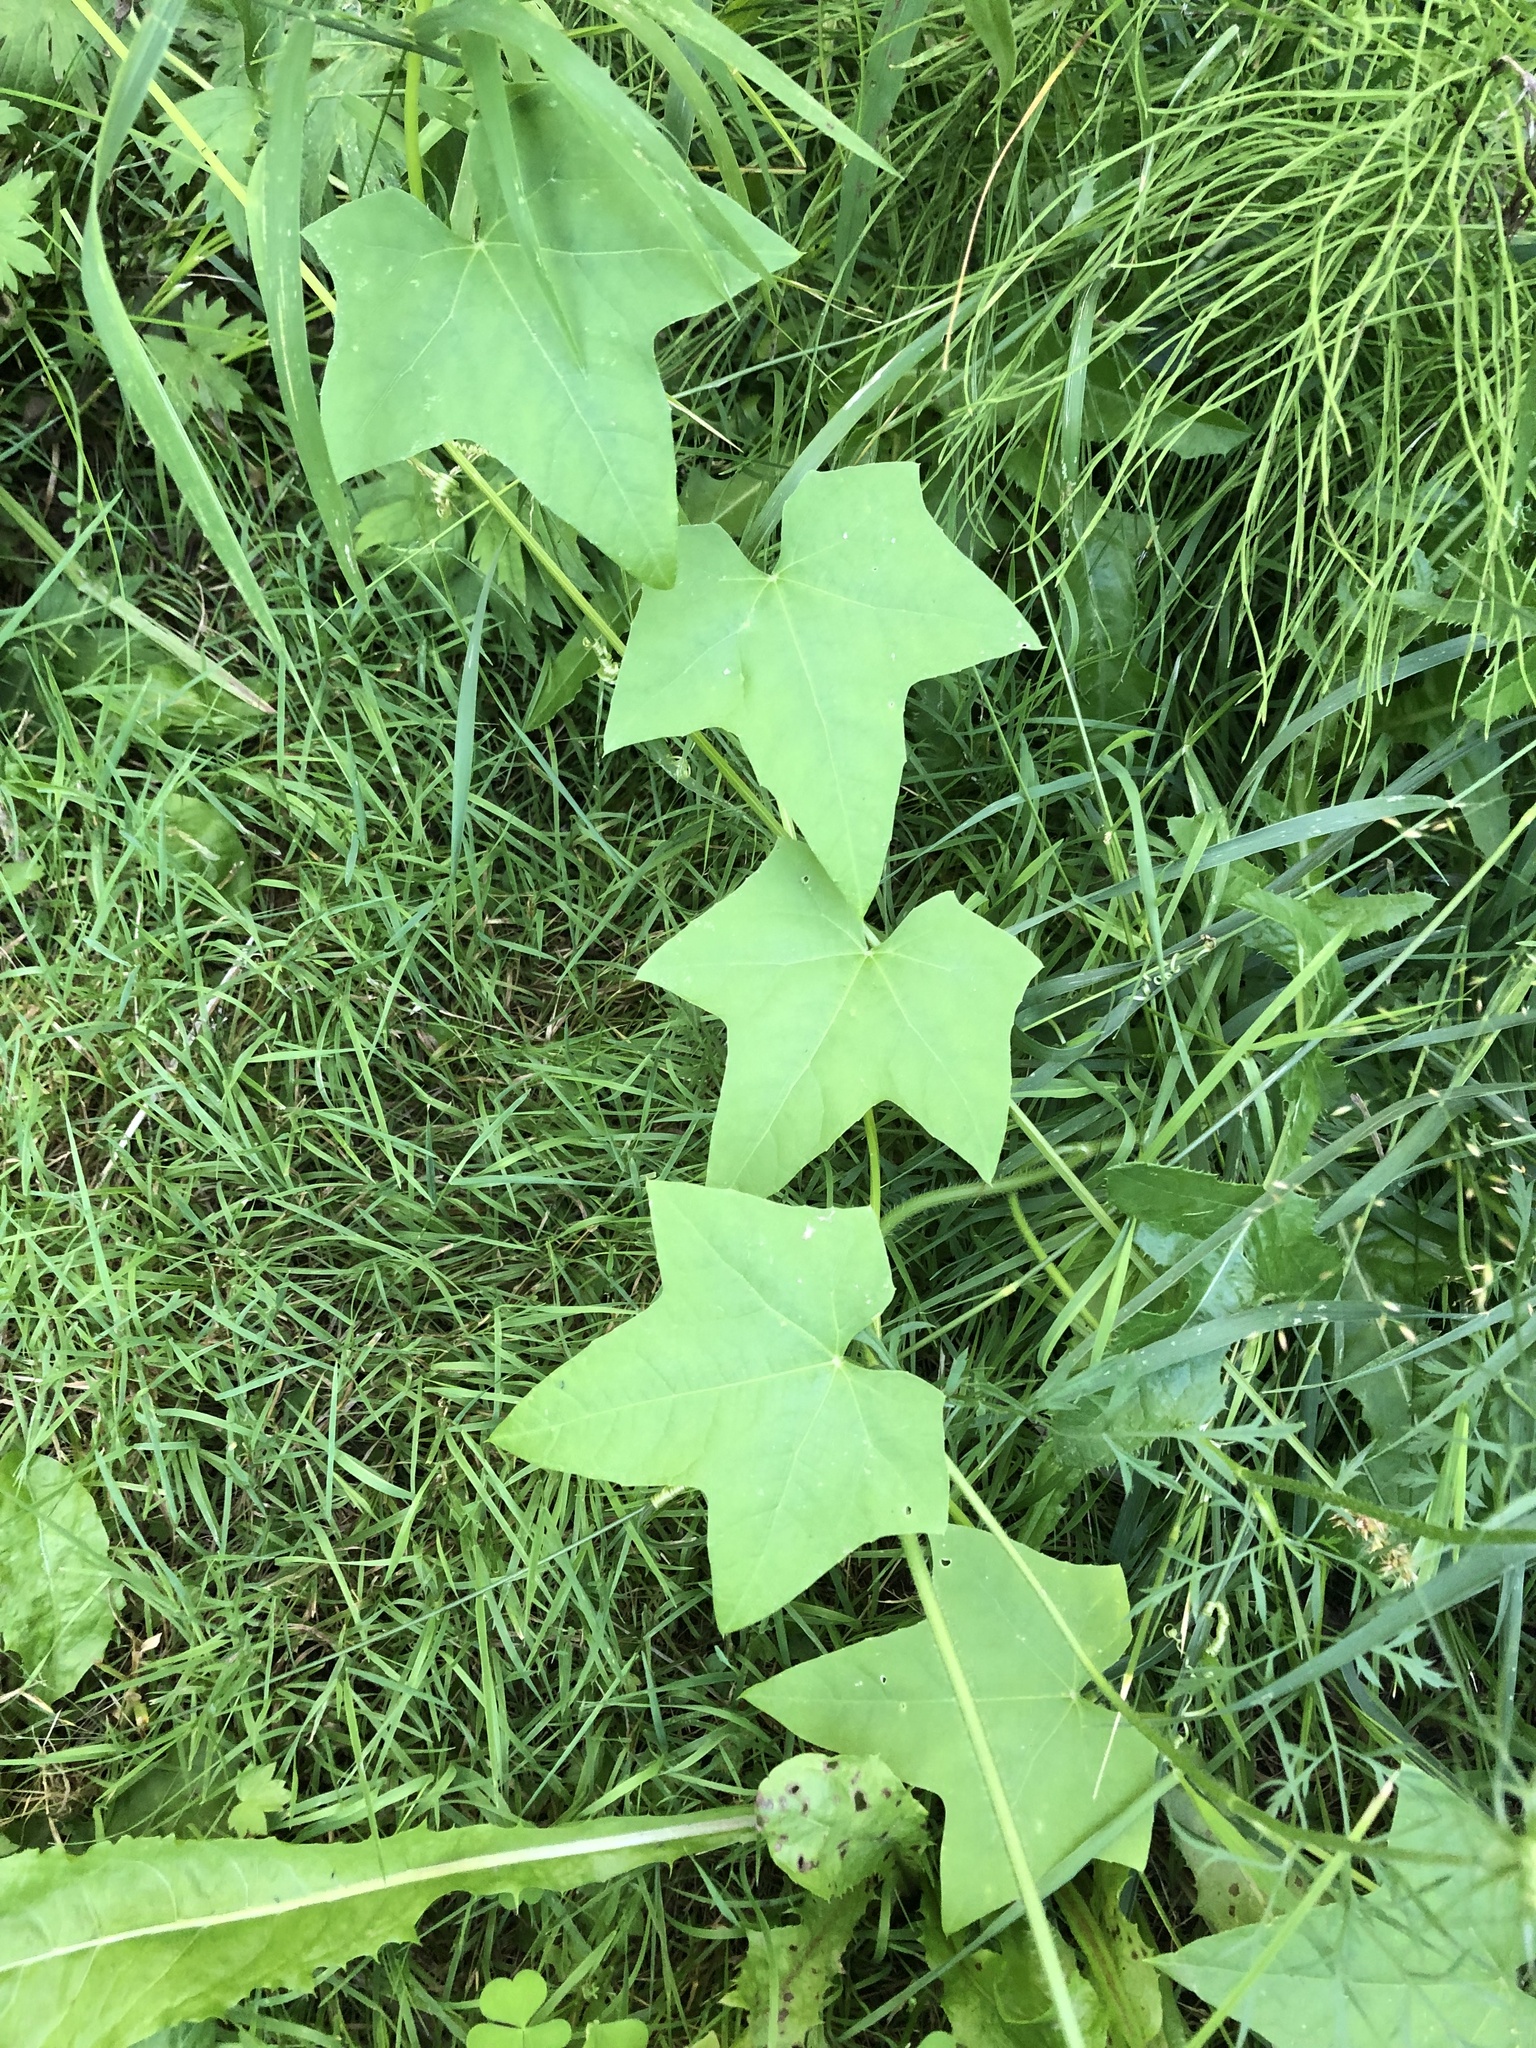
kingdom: Plantae
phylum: Tracheophyta
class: Magnoliopsida
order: Cucurbitales
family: Cucurbitaceae
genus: Echinocystis
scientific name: Echinocystis lobata
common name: Wild cucumber
